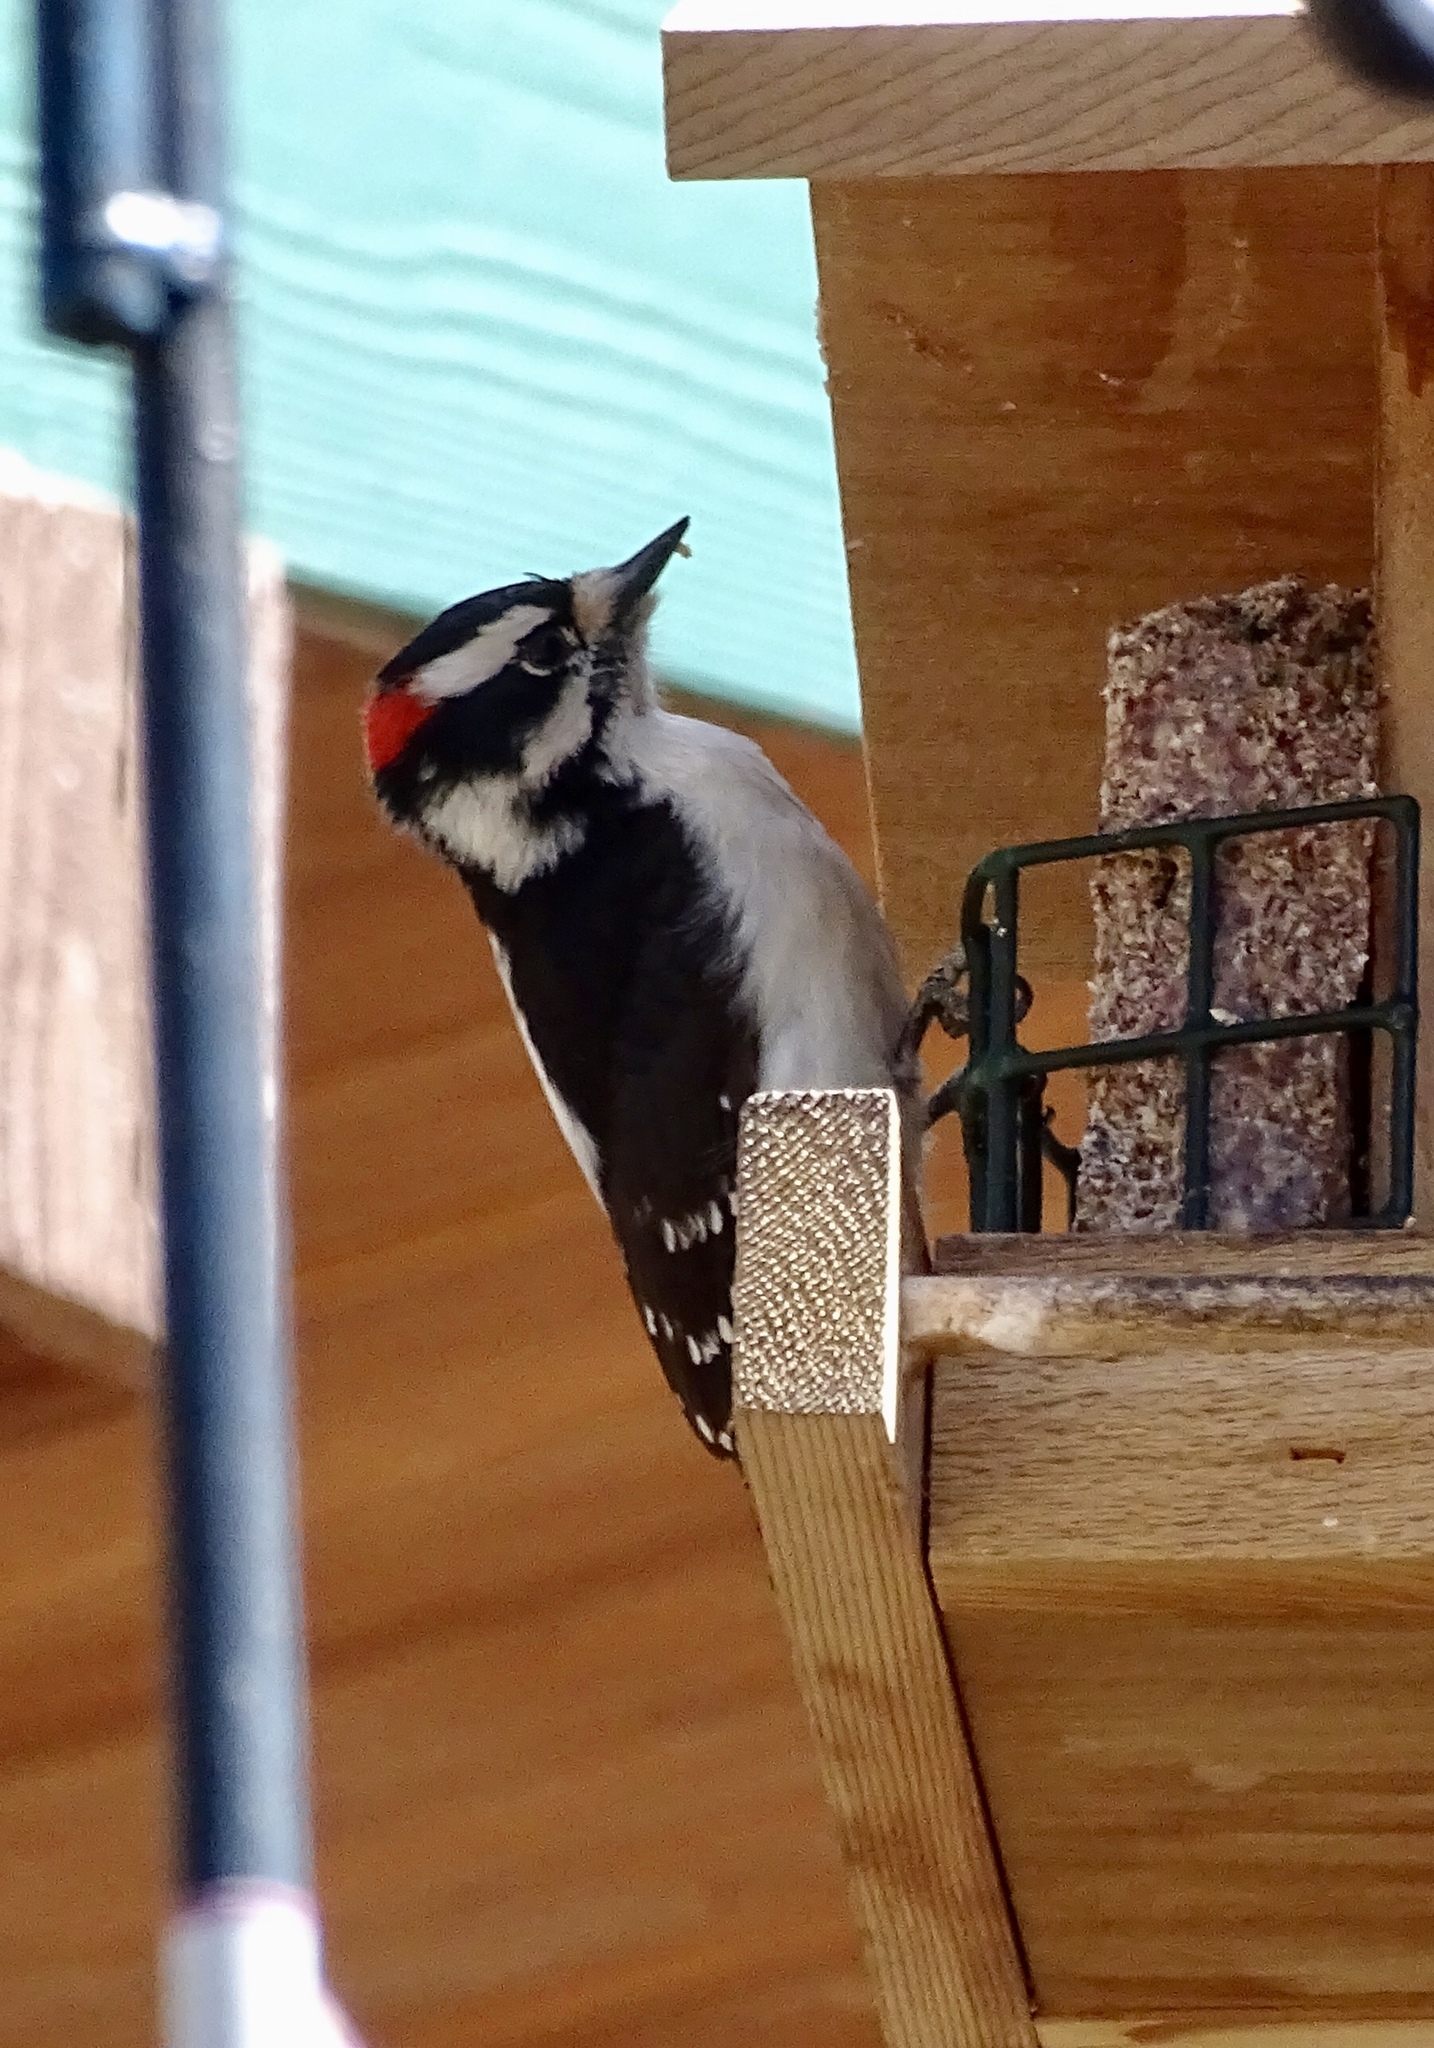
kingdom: Animalia
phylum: Chordata
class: Aves
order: Piciformes
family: Picidae
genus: Dryobates
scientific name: Dryobates pubescens
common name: Downy woodpecker
